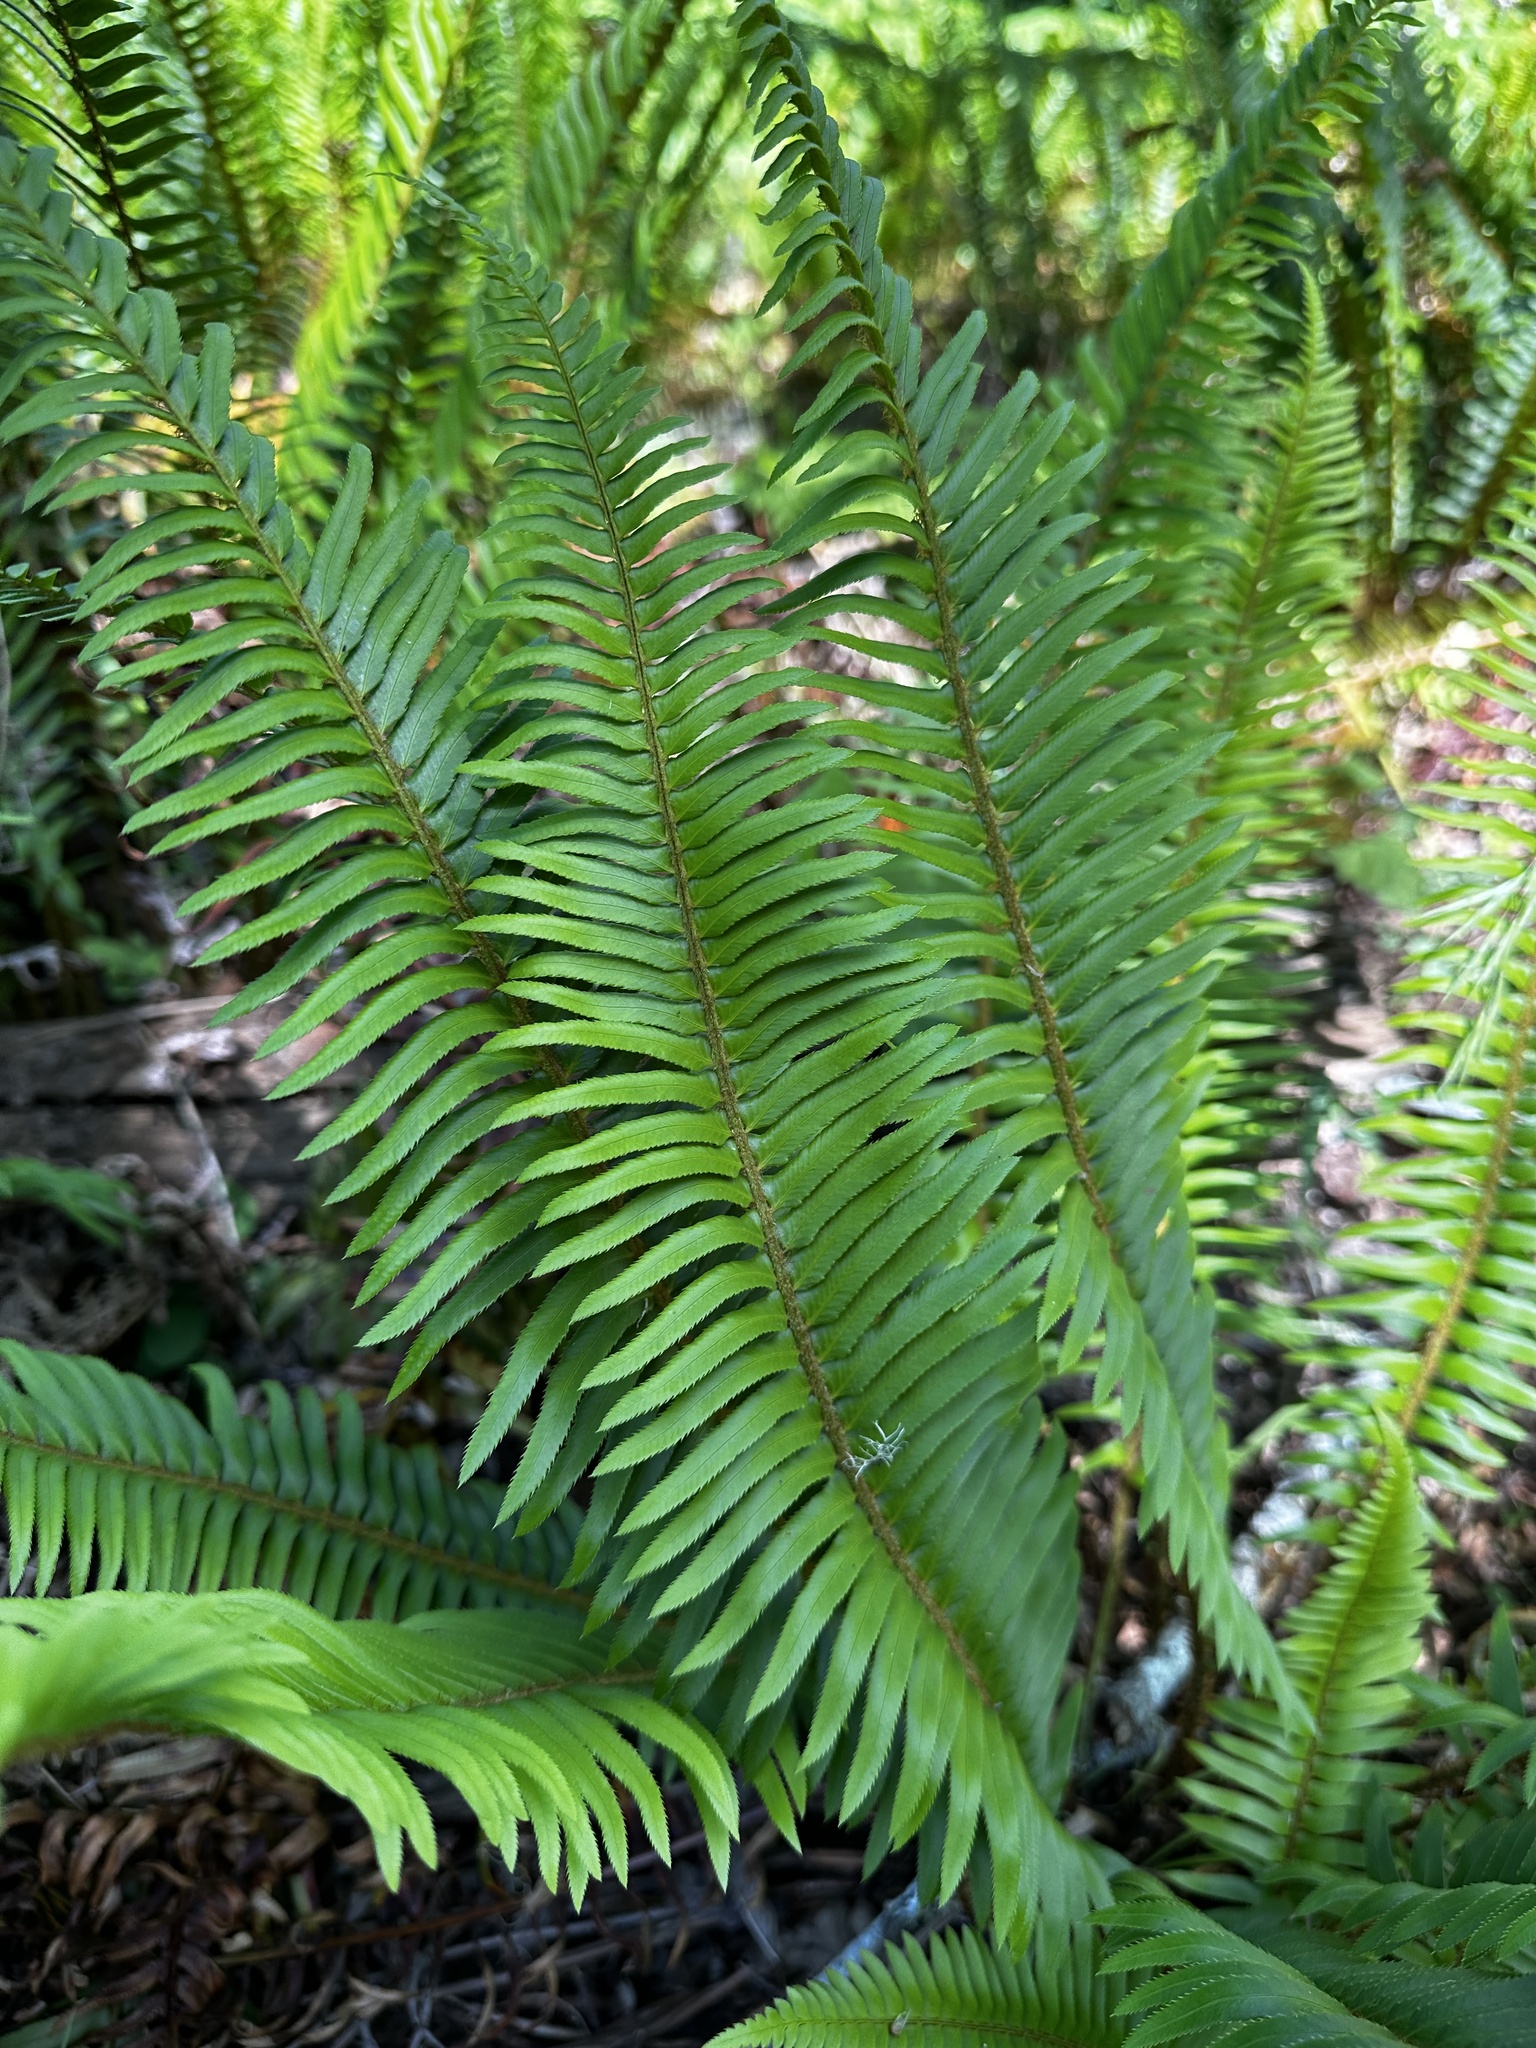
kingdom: Plantae
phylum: Tracheophyta
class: Polypodiopsida
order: Polypodiales
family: Dryopteridaceae
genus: Polystichum
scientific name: Polystichum munitum
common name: Western sword-fern
